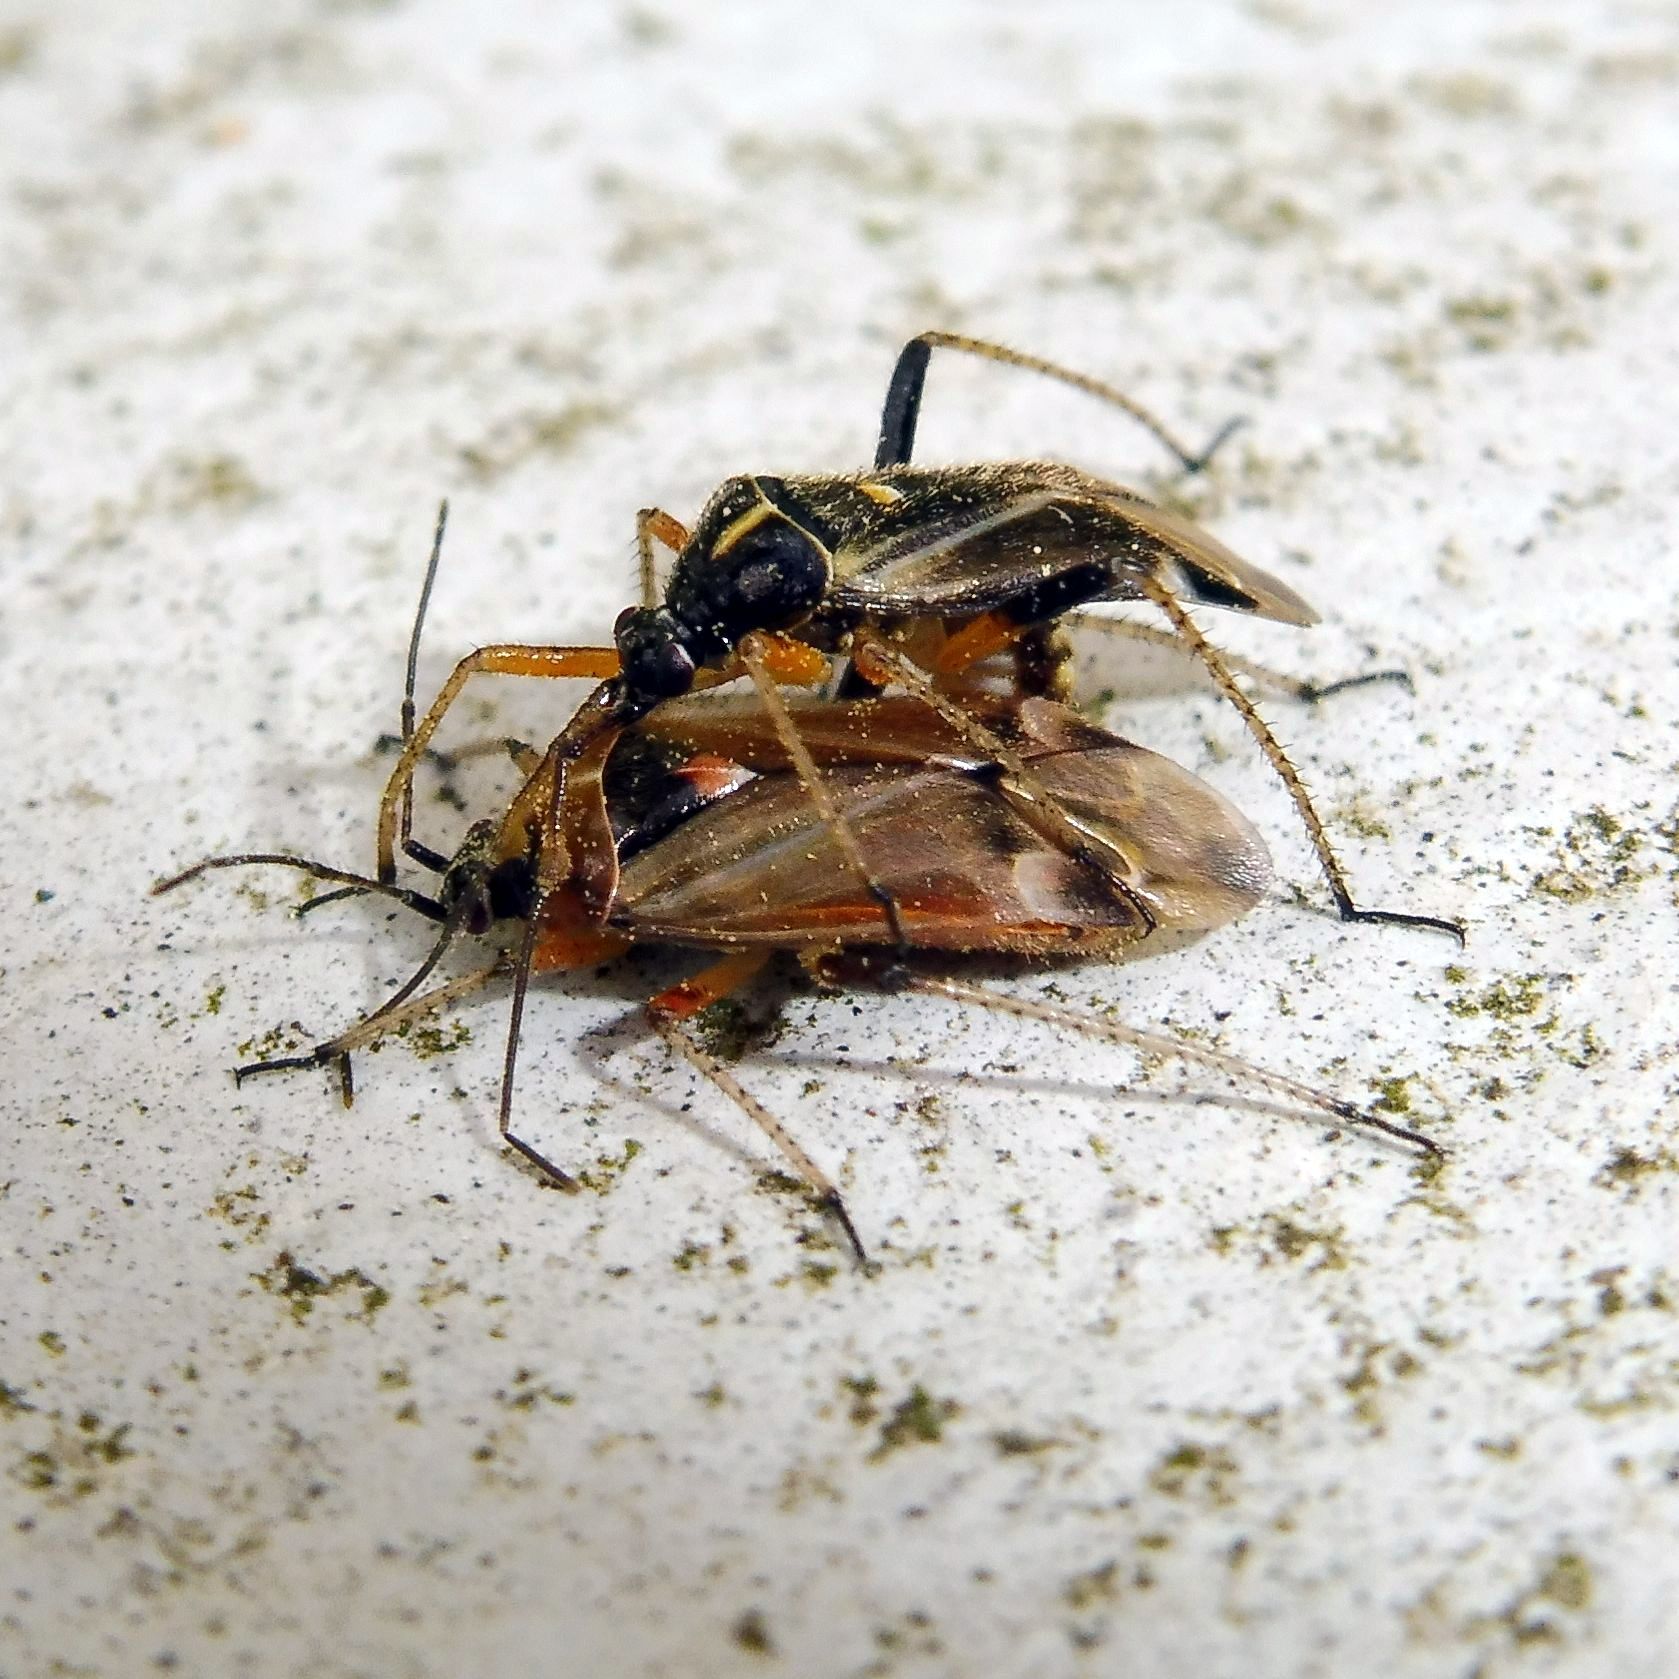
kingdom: Animalia
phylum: Arthropoda
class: Insecta
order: Hemiptera
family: Miridae
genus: Harpocera
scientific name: Harpocera thoracica
